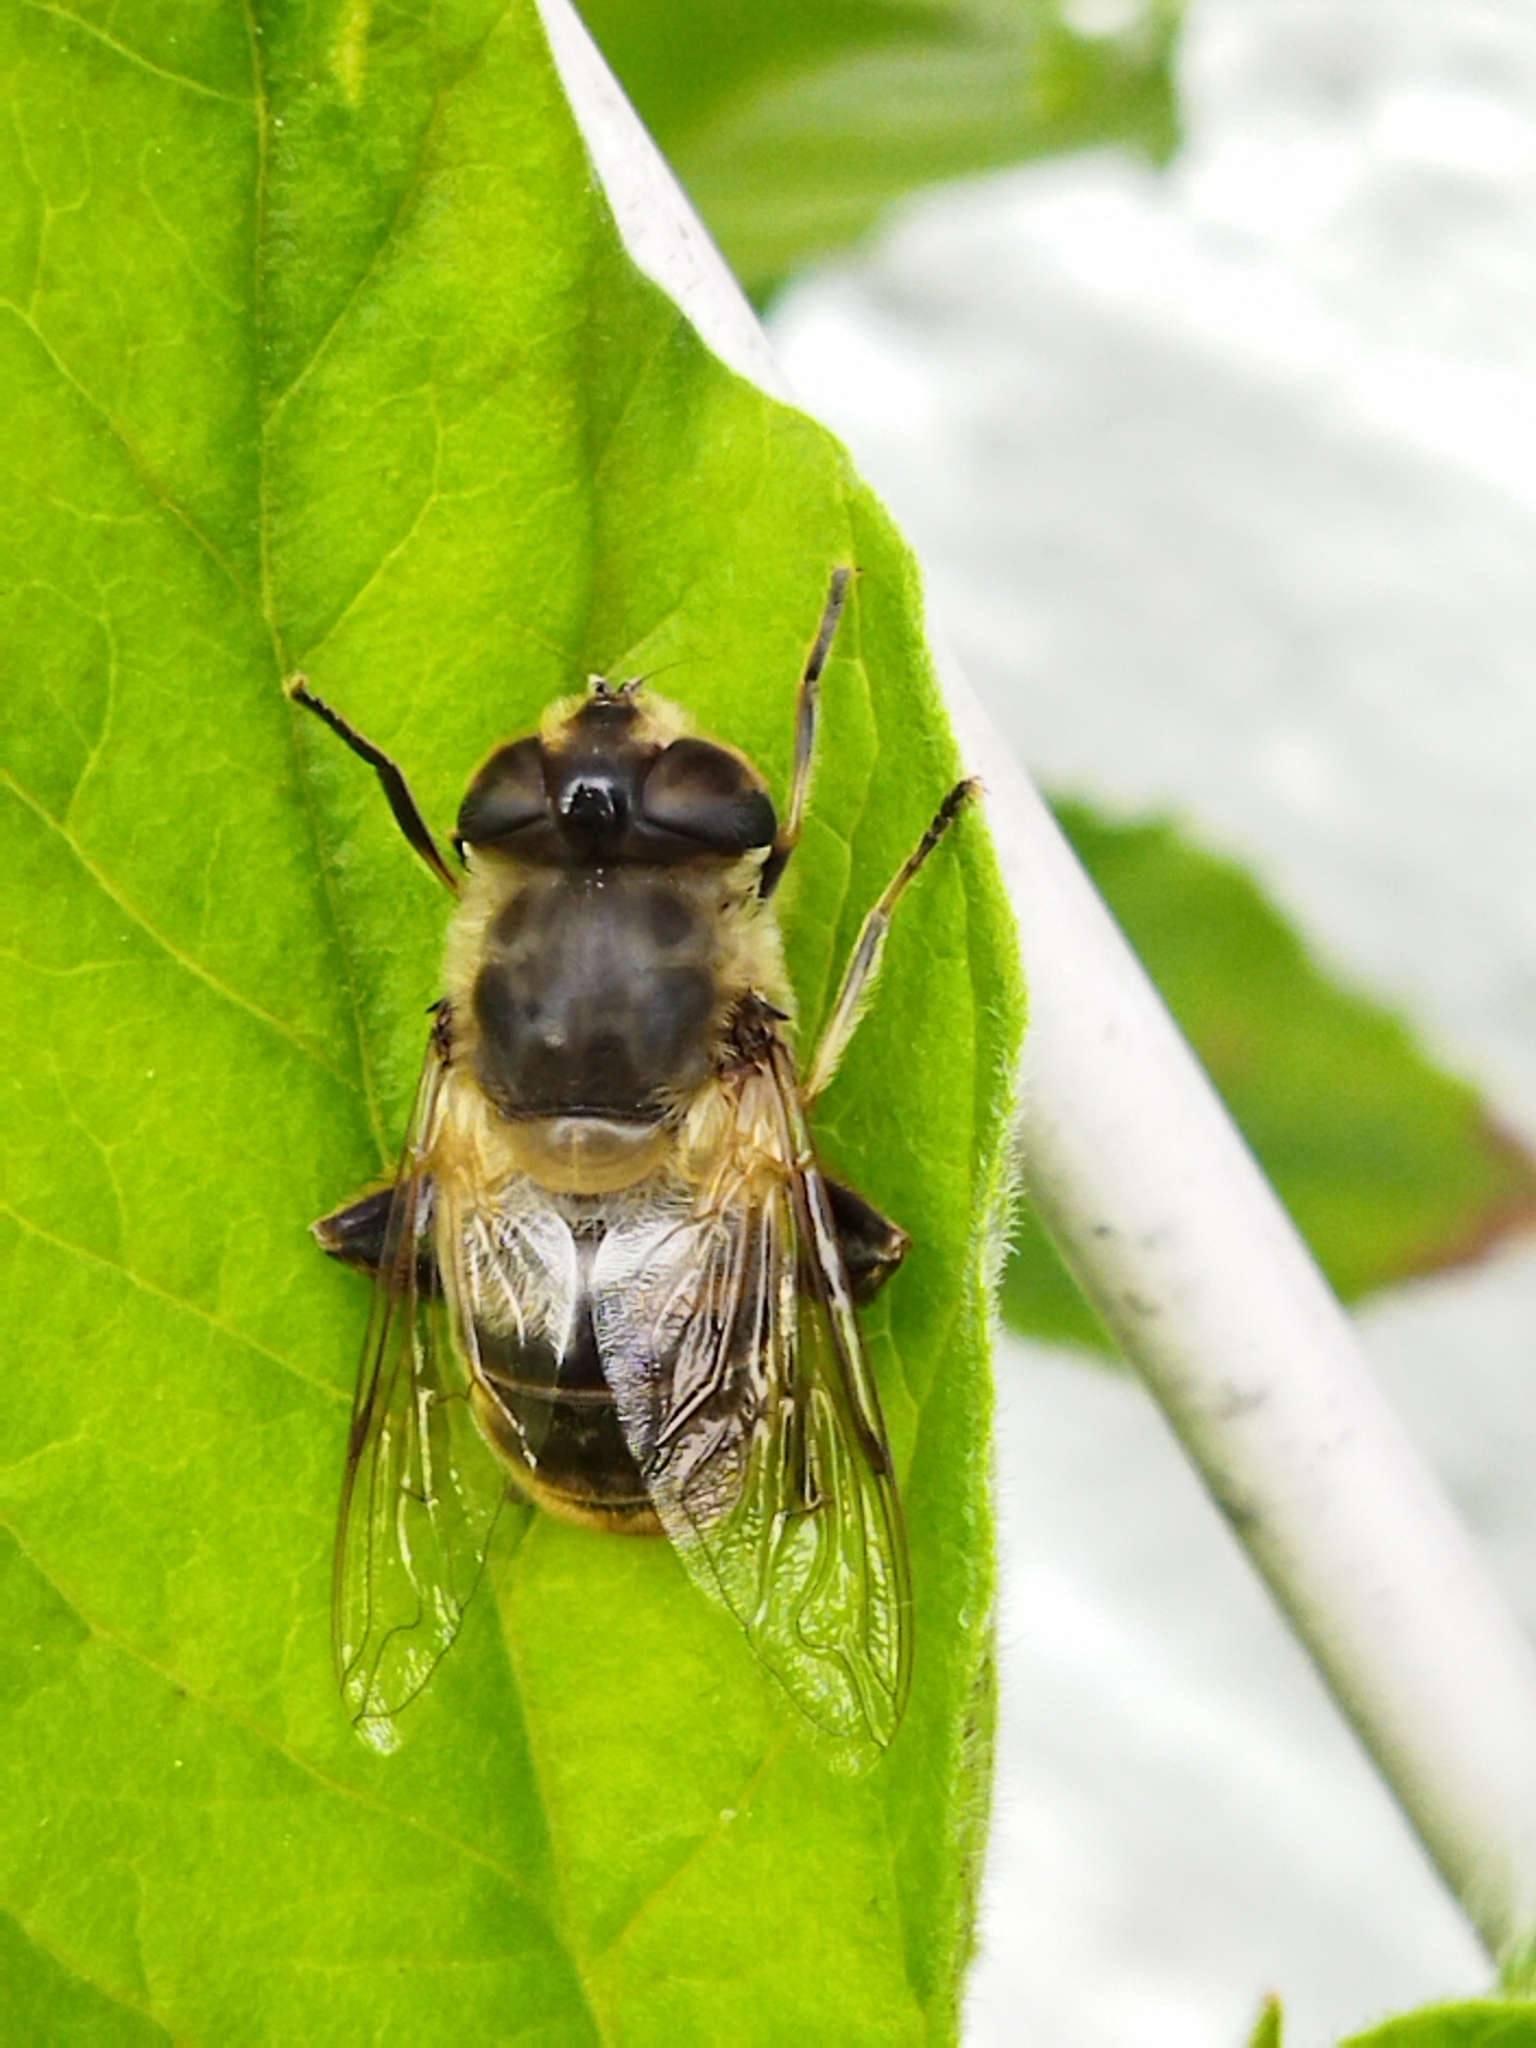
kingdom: Animalia
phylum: Arthropoda
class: Insecta
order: Diptera
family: Syrphidae
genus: Eristalis
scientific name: Eristalis tenax
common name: Drone fly
